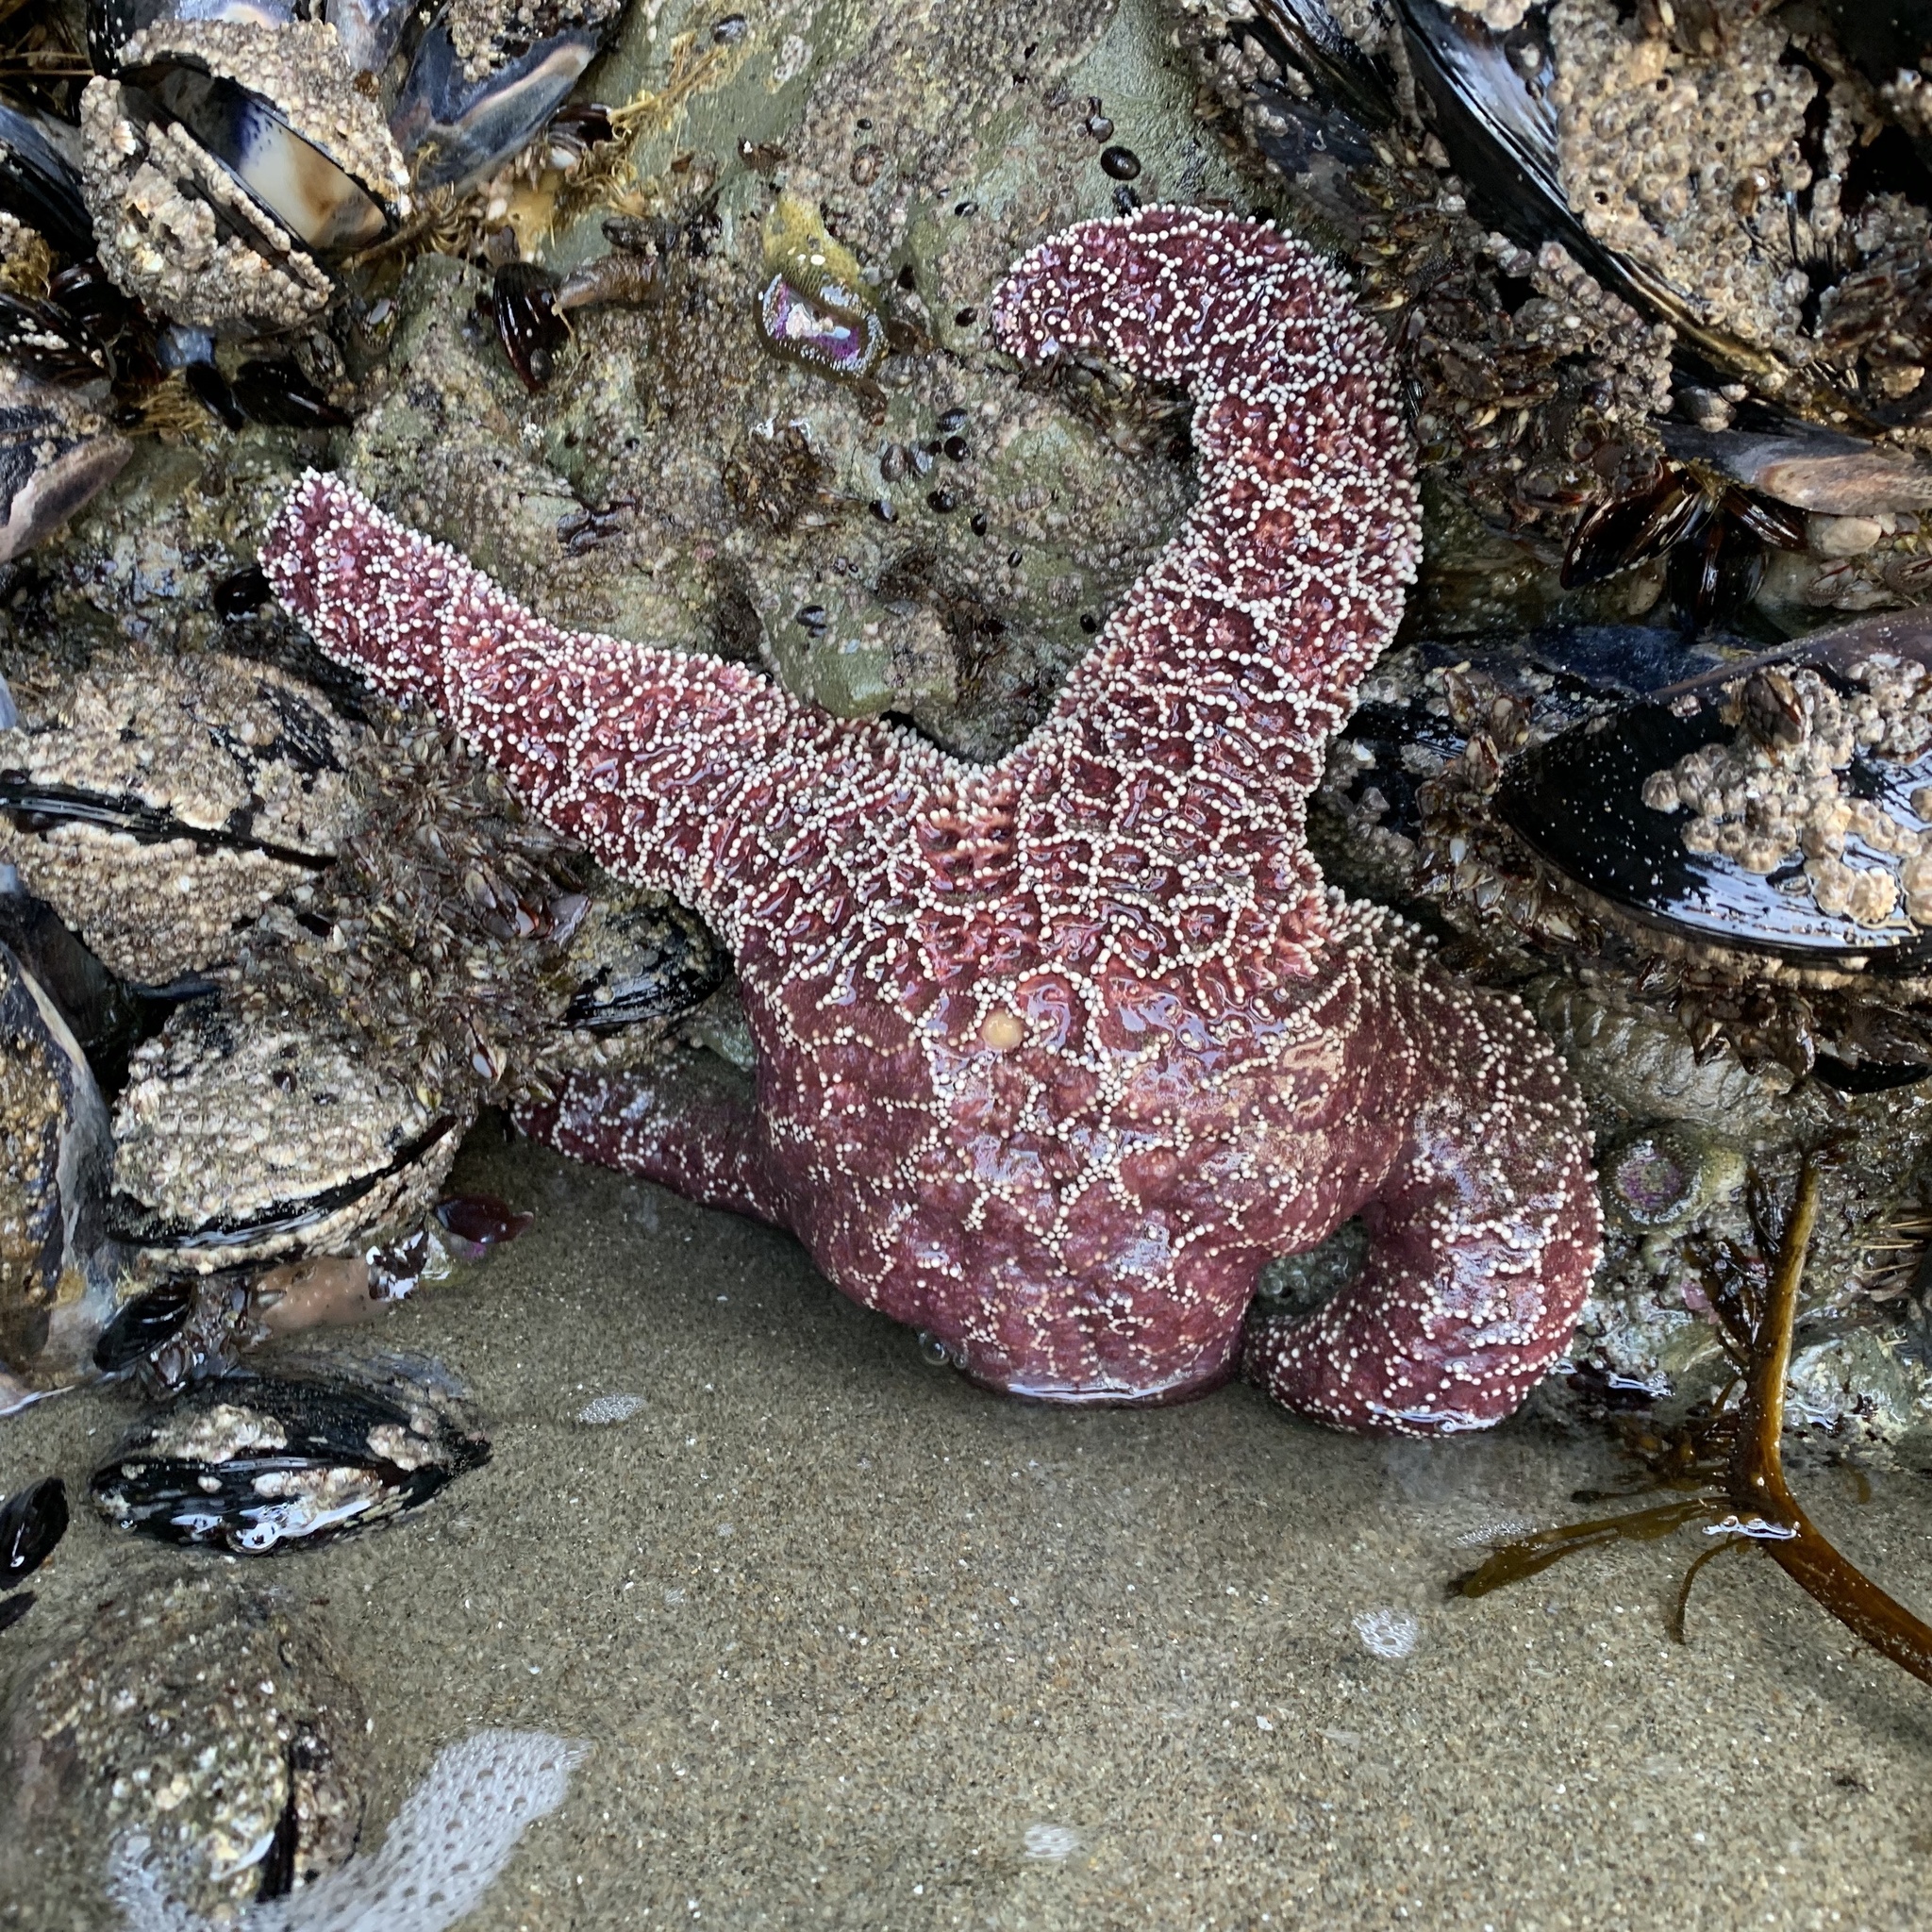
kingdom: Animalia
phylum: Echinodermata
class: Asteroidea
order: Forcipulatida
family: Asteriidae
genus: Pisaster
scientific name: Pisaster ochraceus
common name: Ochre stars
